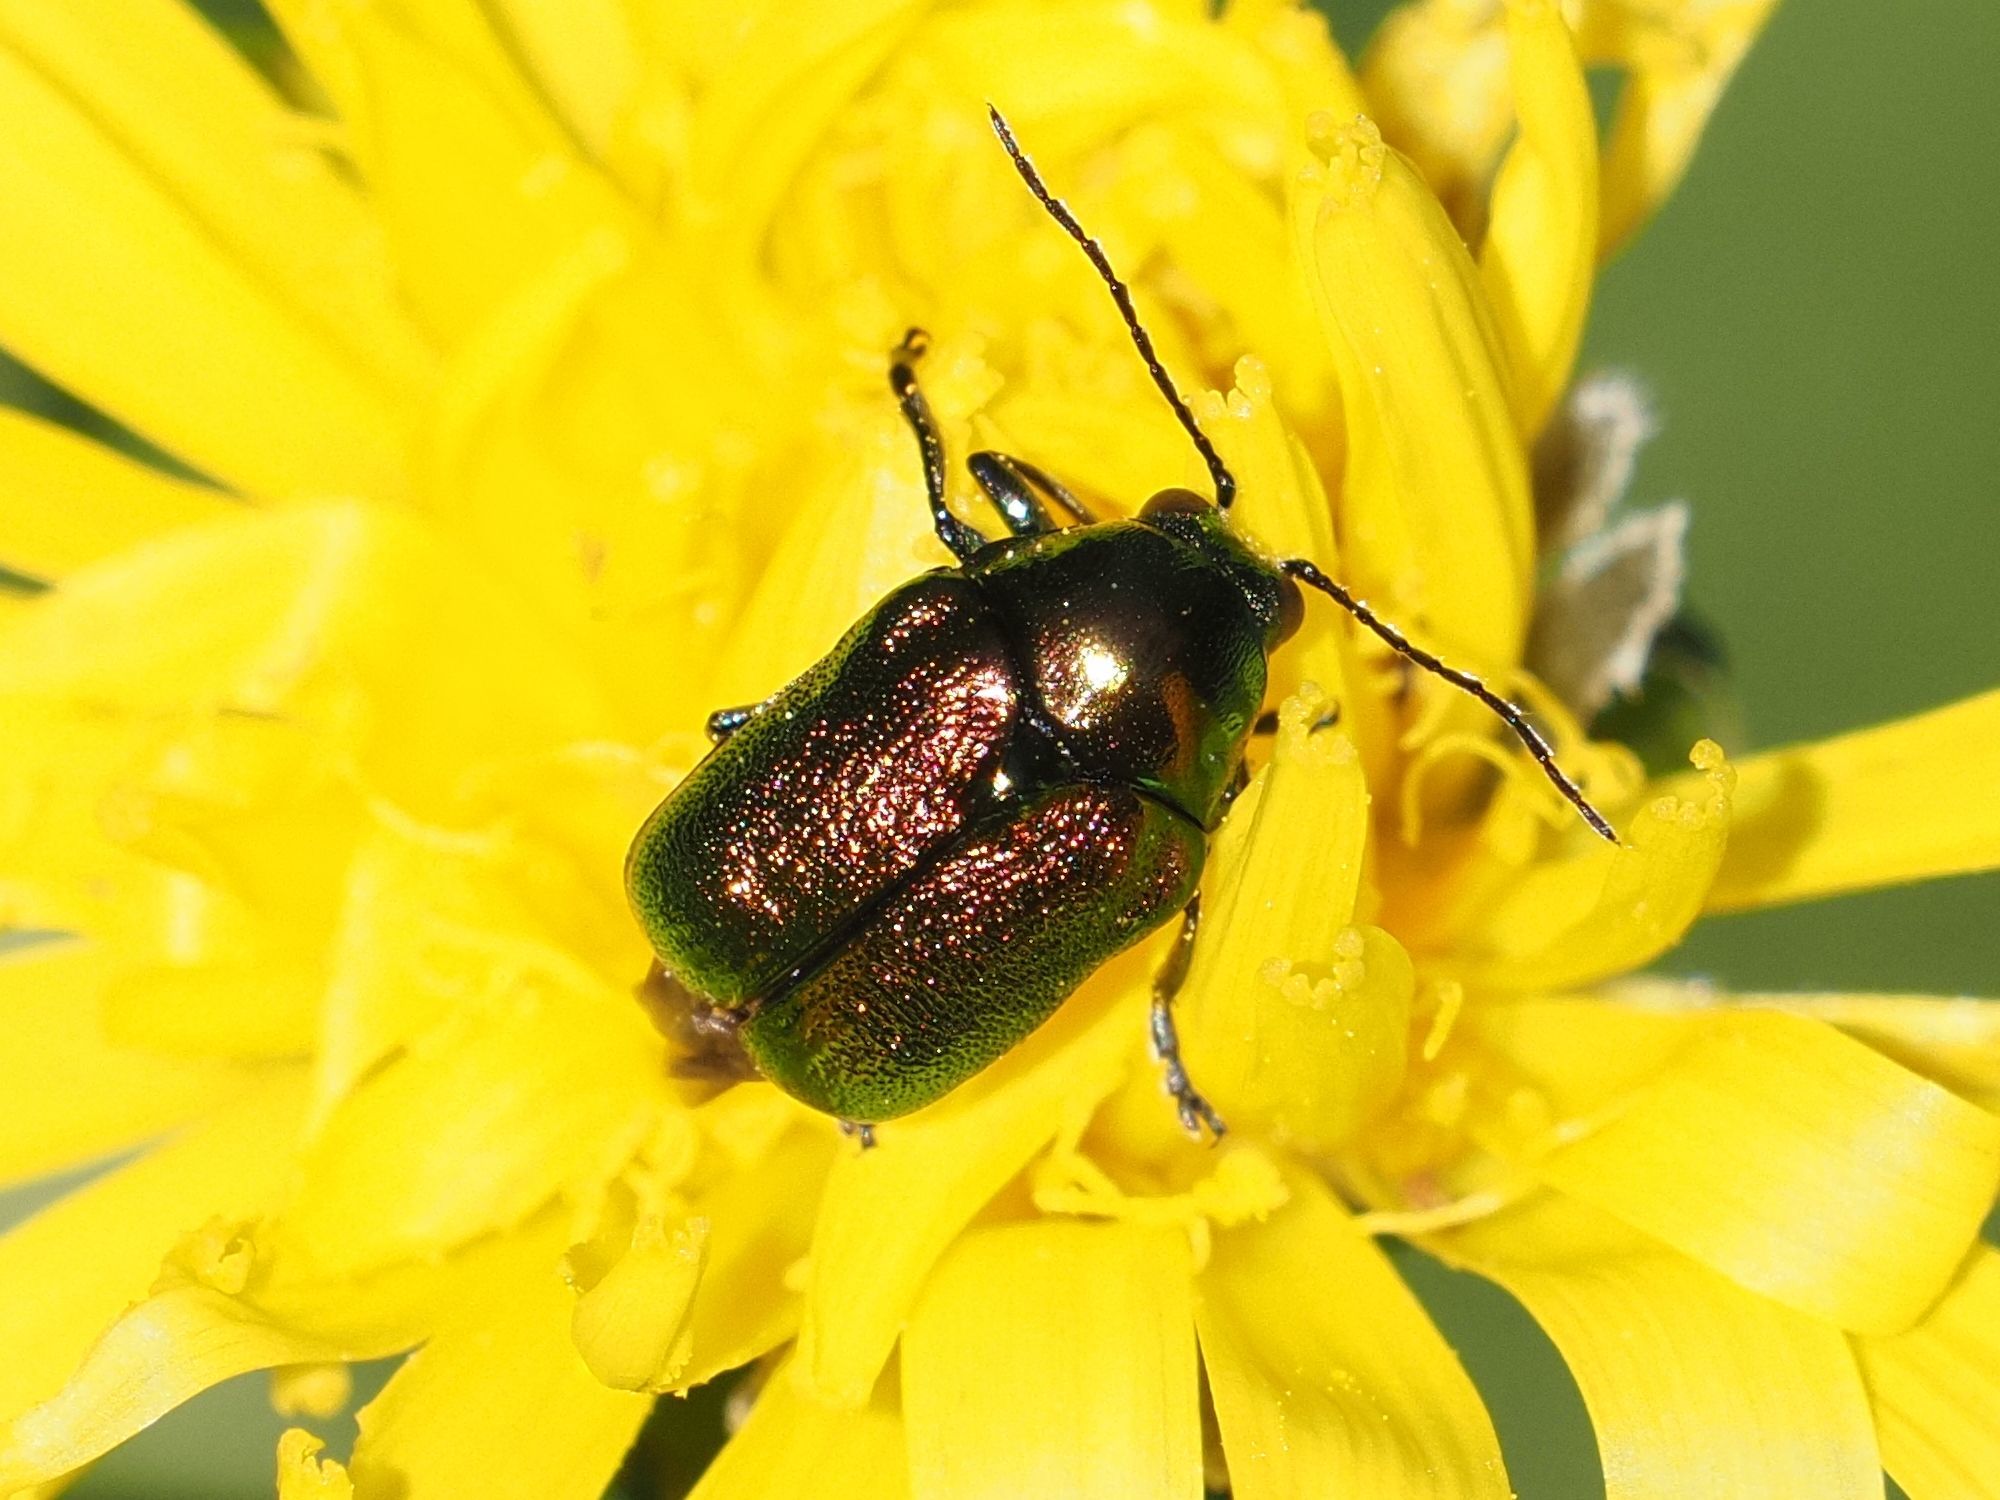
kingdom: Animalia
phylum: Arthropoda
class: Insecta
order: Coleoptera
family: Chrysomelidae
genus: Cryptocephalus
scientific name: Cryptocephalus
